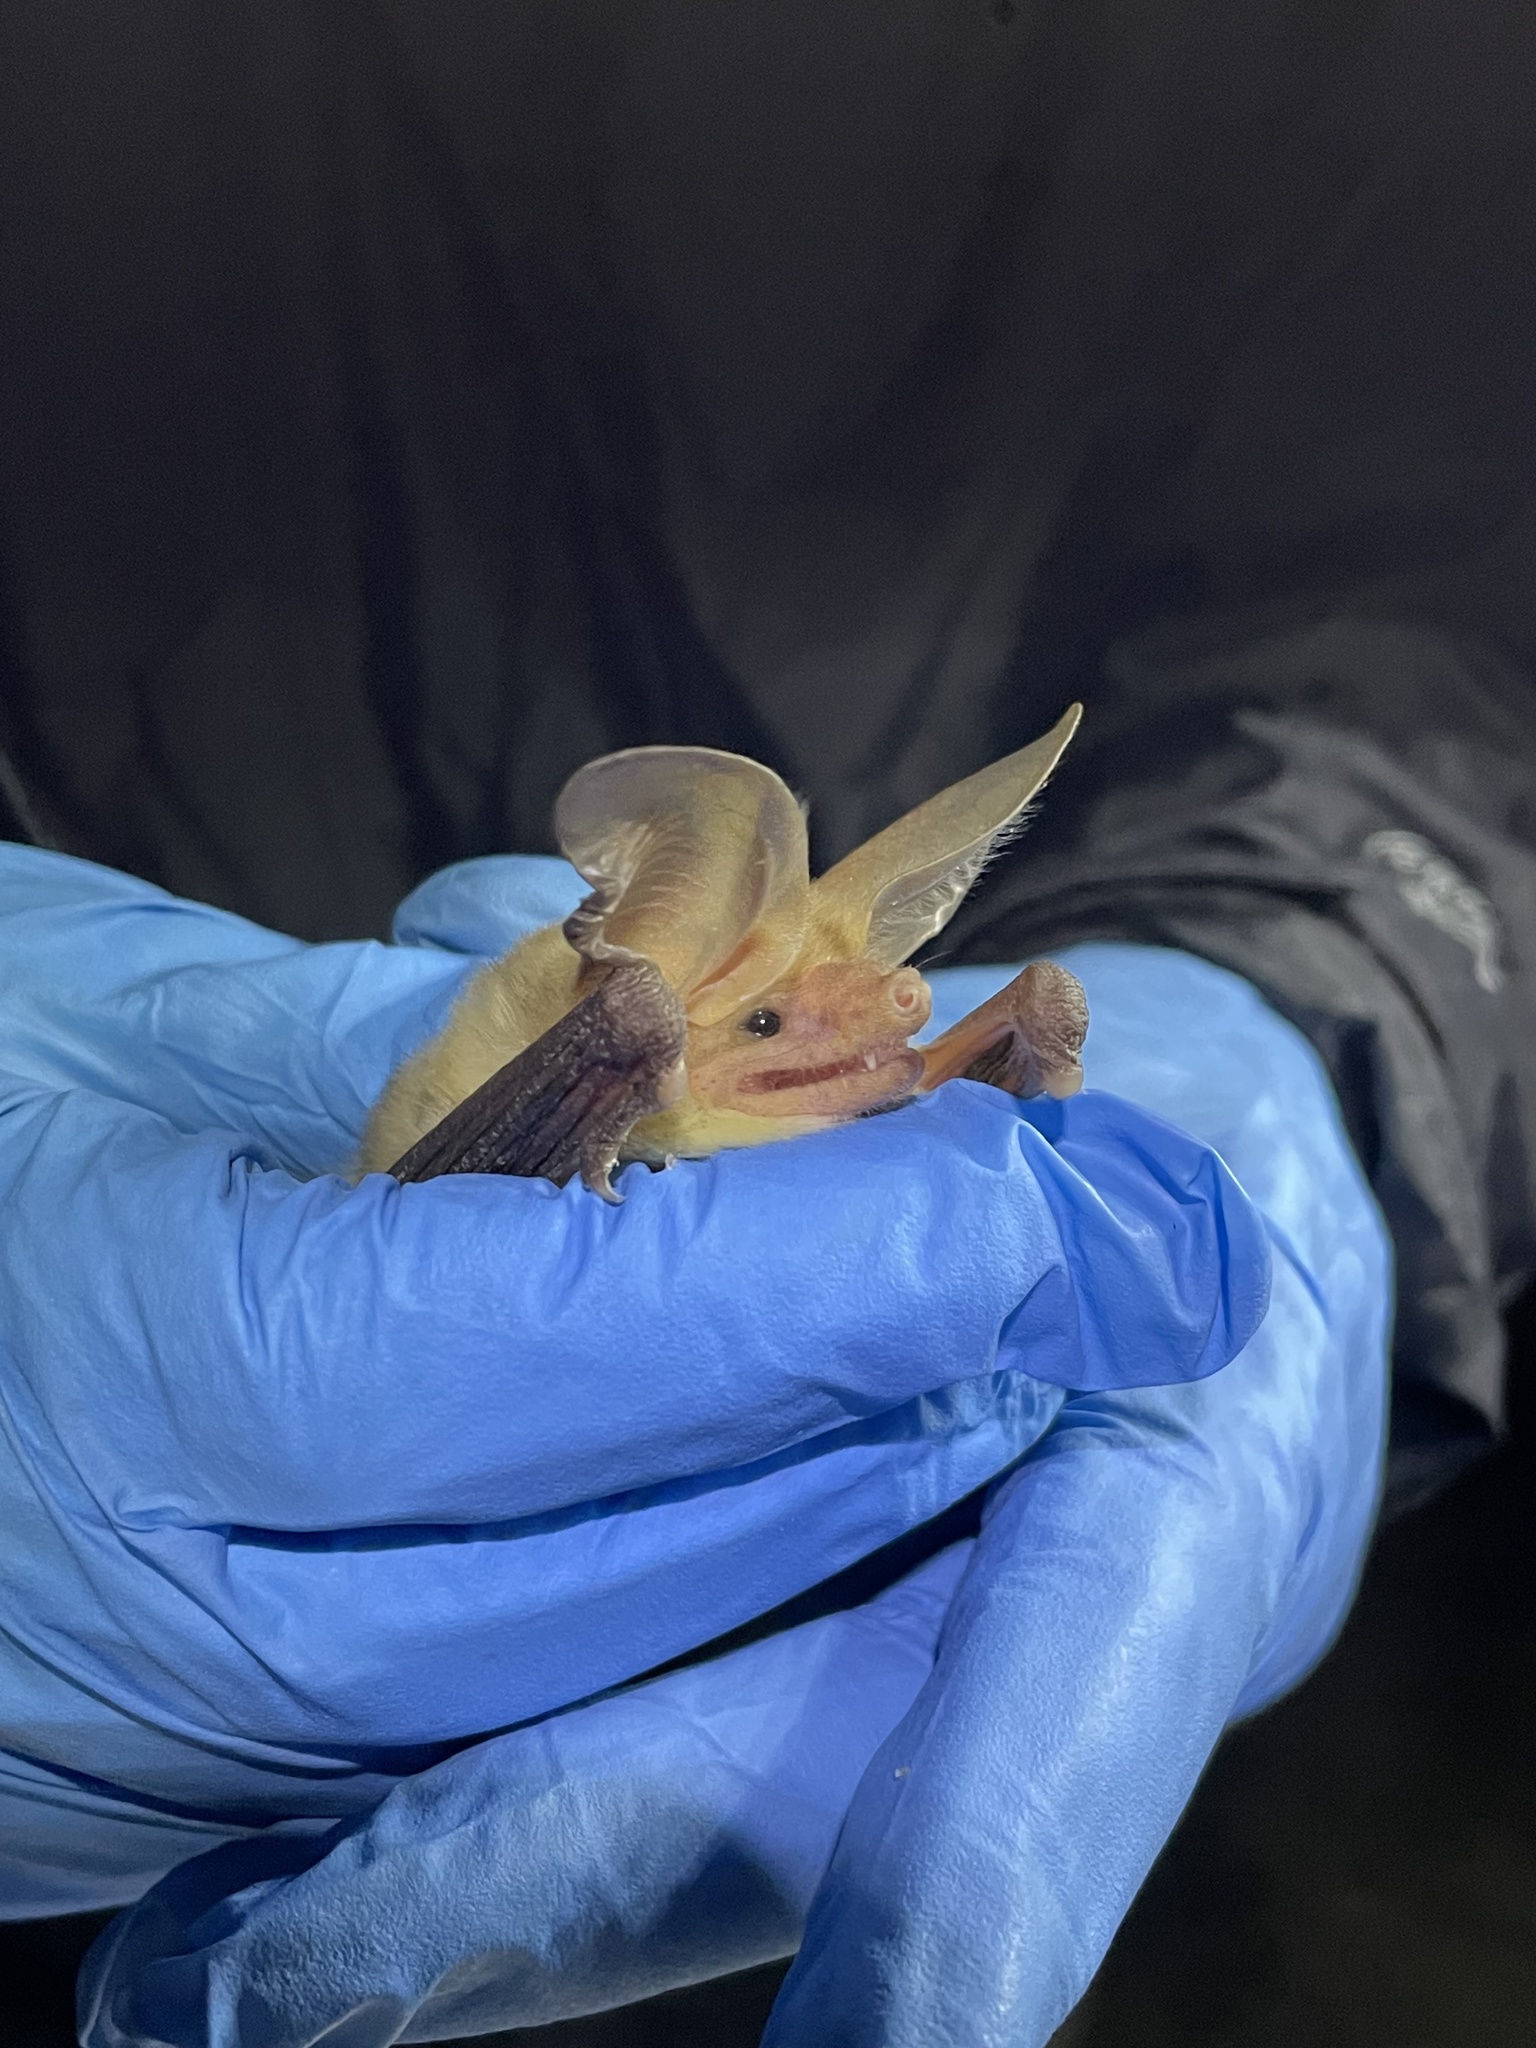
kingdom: Animalia
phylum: Chordata
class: Mammalia
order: Chiroptera
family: Vespertilionidae
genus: Antrozous
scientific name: Antrozous pallidus
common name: Pallid bat
